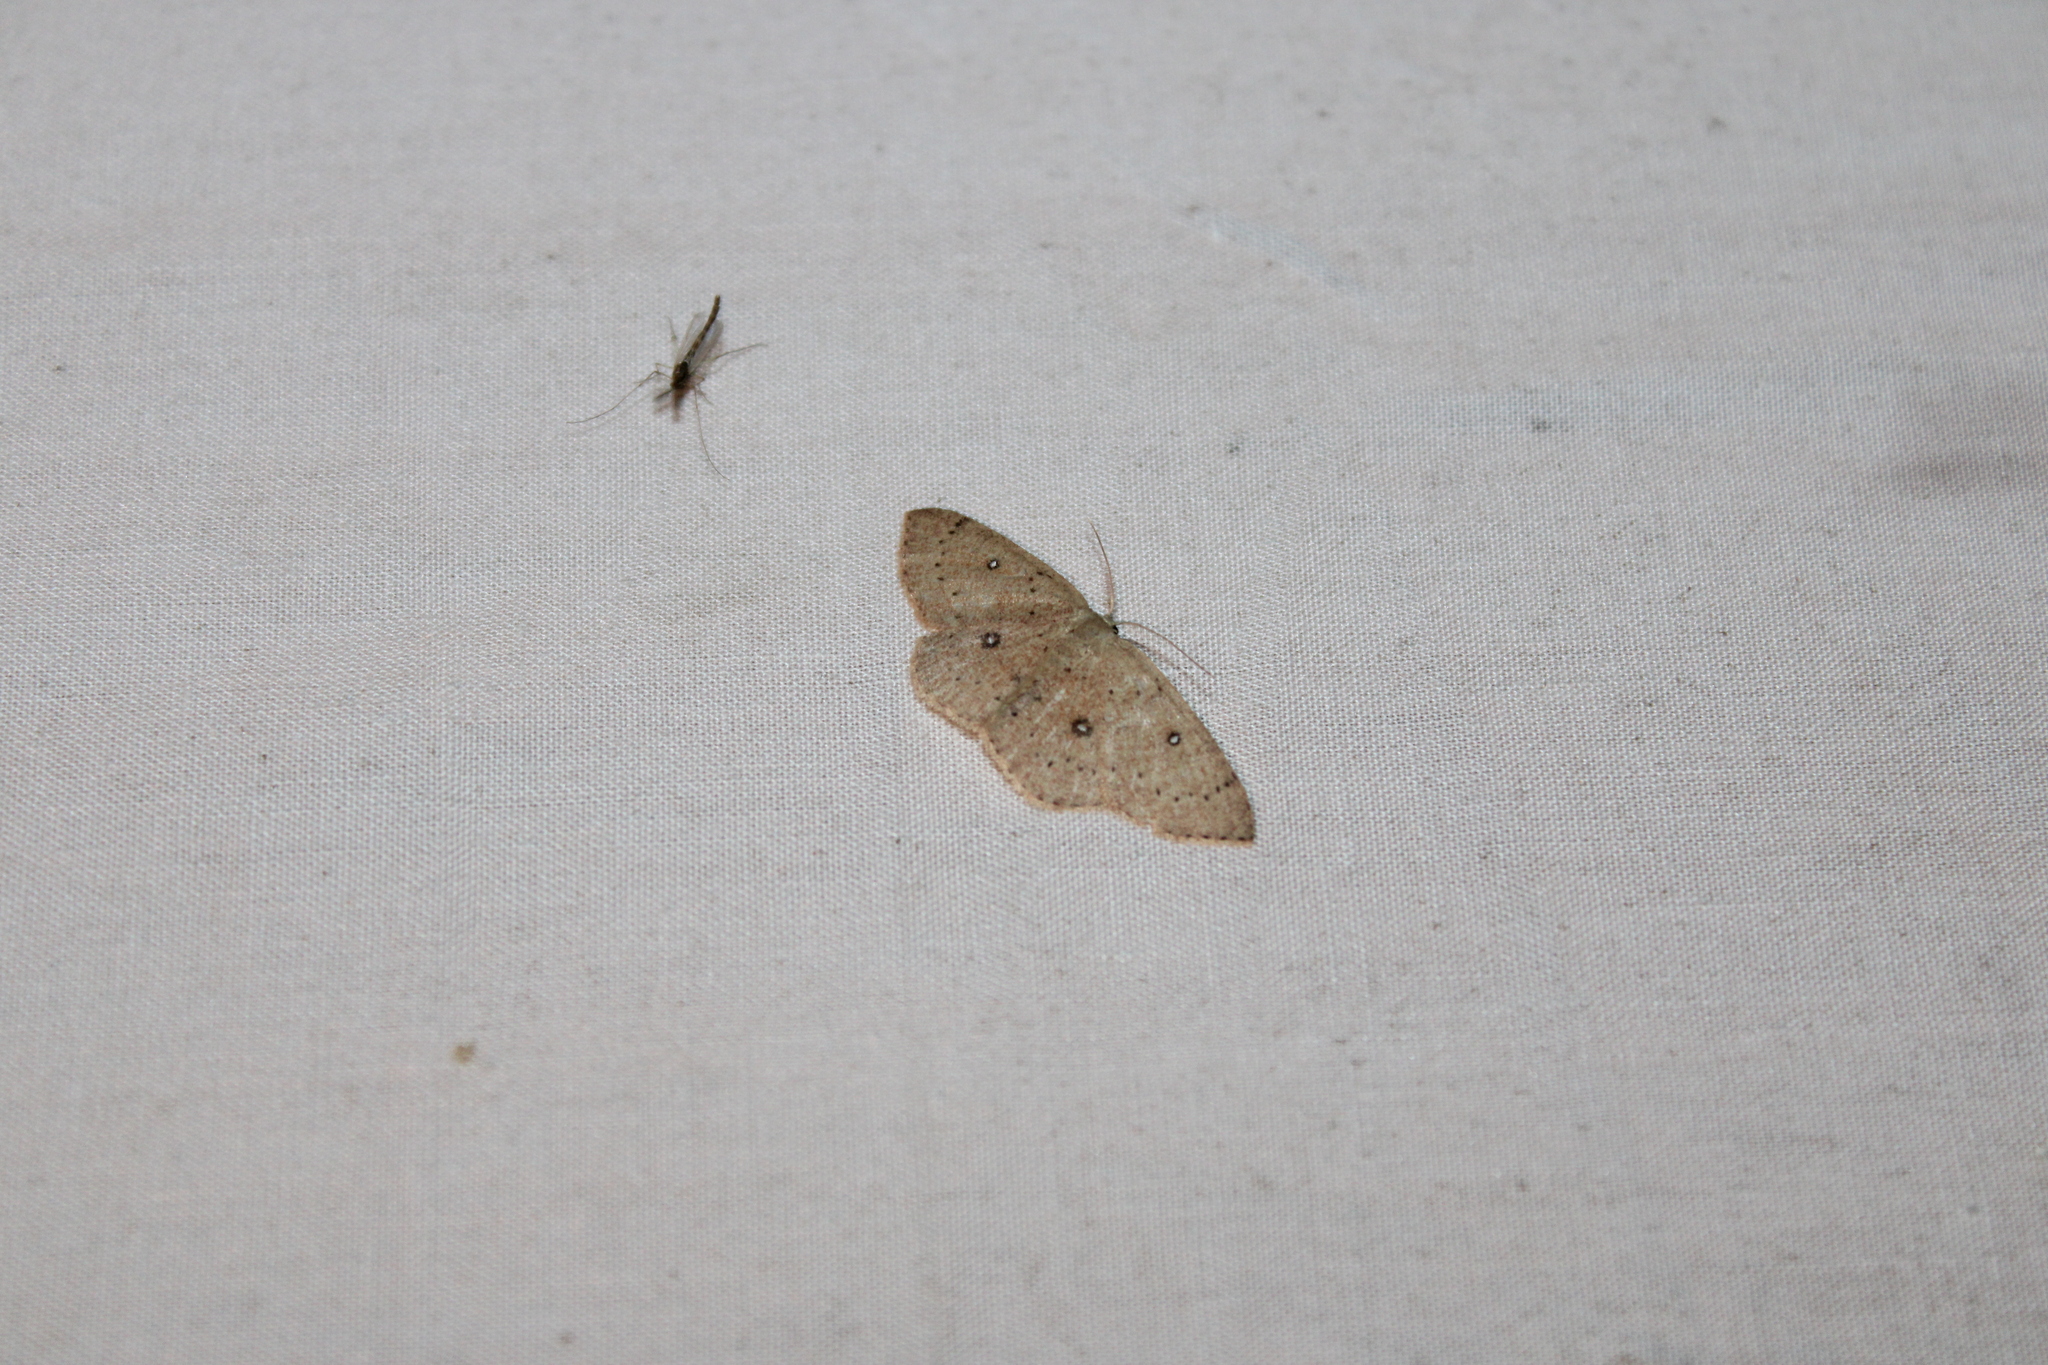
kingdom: Animalia
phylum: Arthropoda
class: Insecta
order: Lepidoptera
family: Geometridae
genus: Cyclophora
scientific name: Cyclophora packardi
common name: Packard's wave
